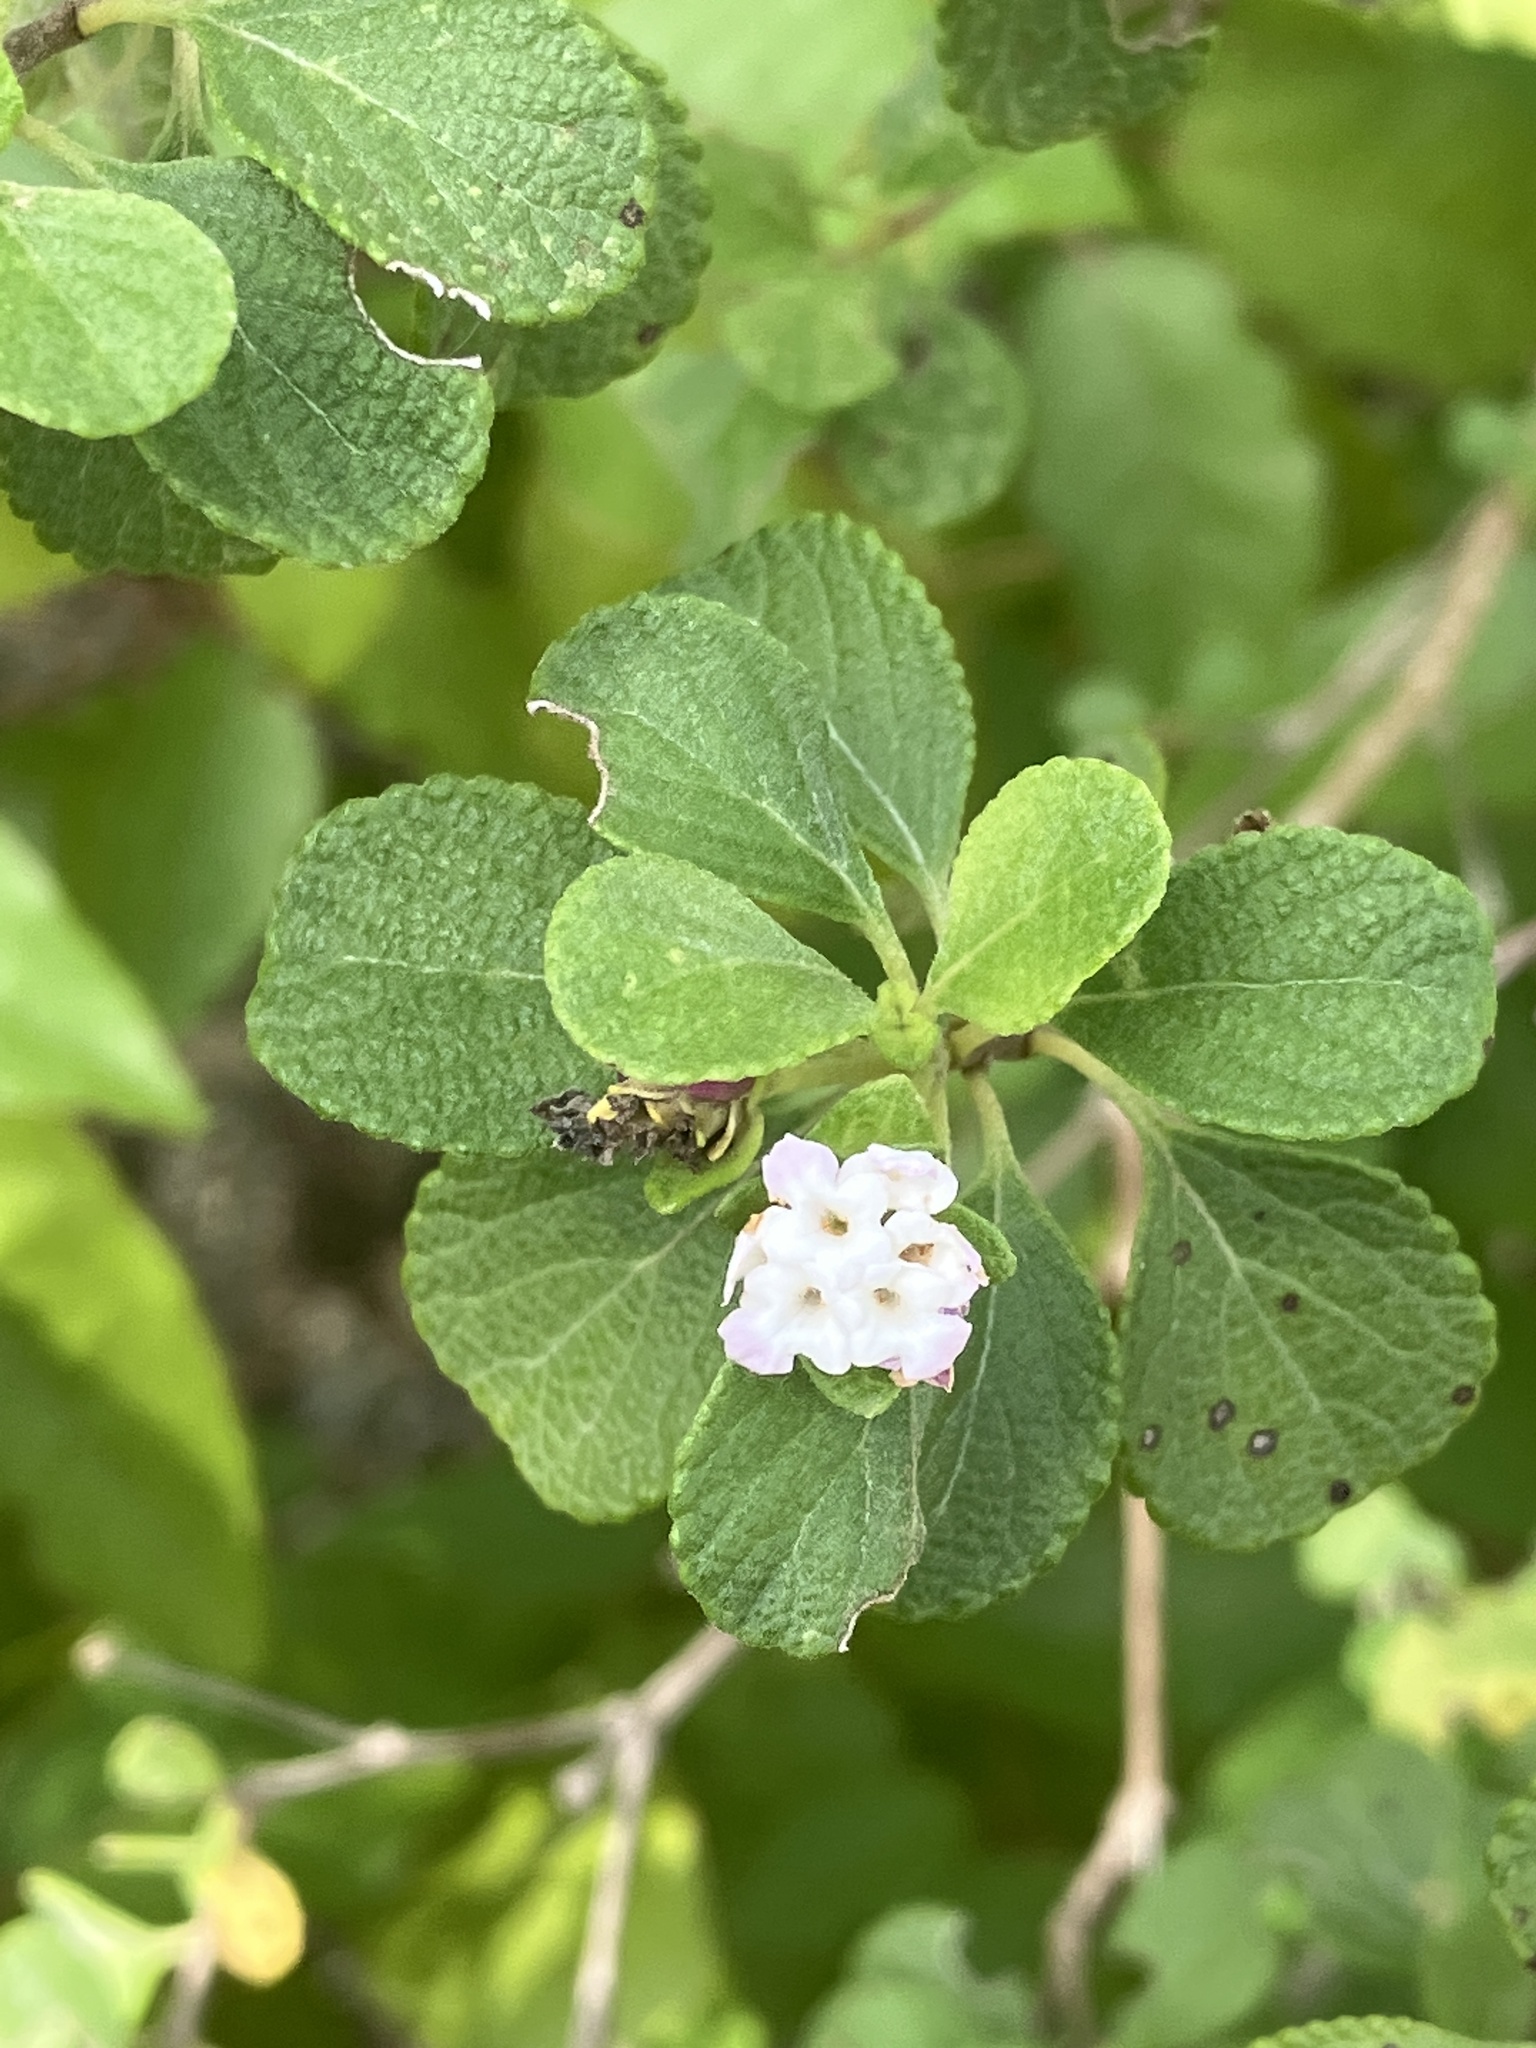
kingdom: Plantae
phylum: Tracheophyta
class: Magnoliopsida
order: Lamiales
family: Verbenaceae
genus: Lantana
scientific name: Lantana involucrata
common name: Black sage
